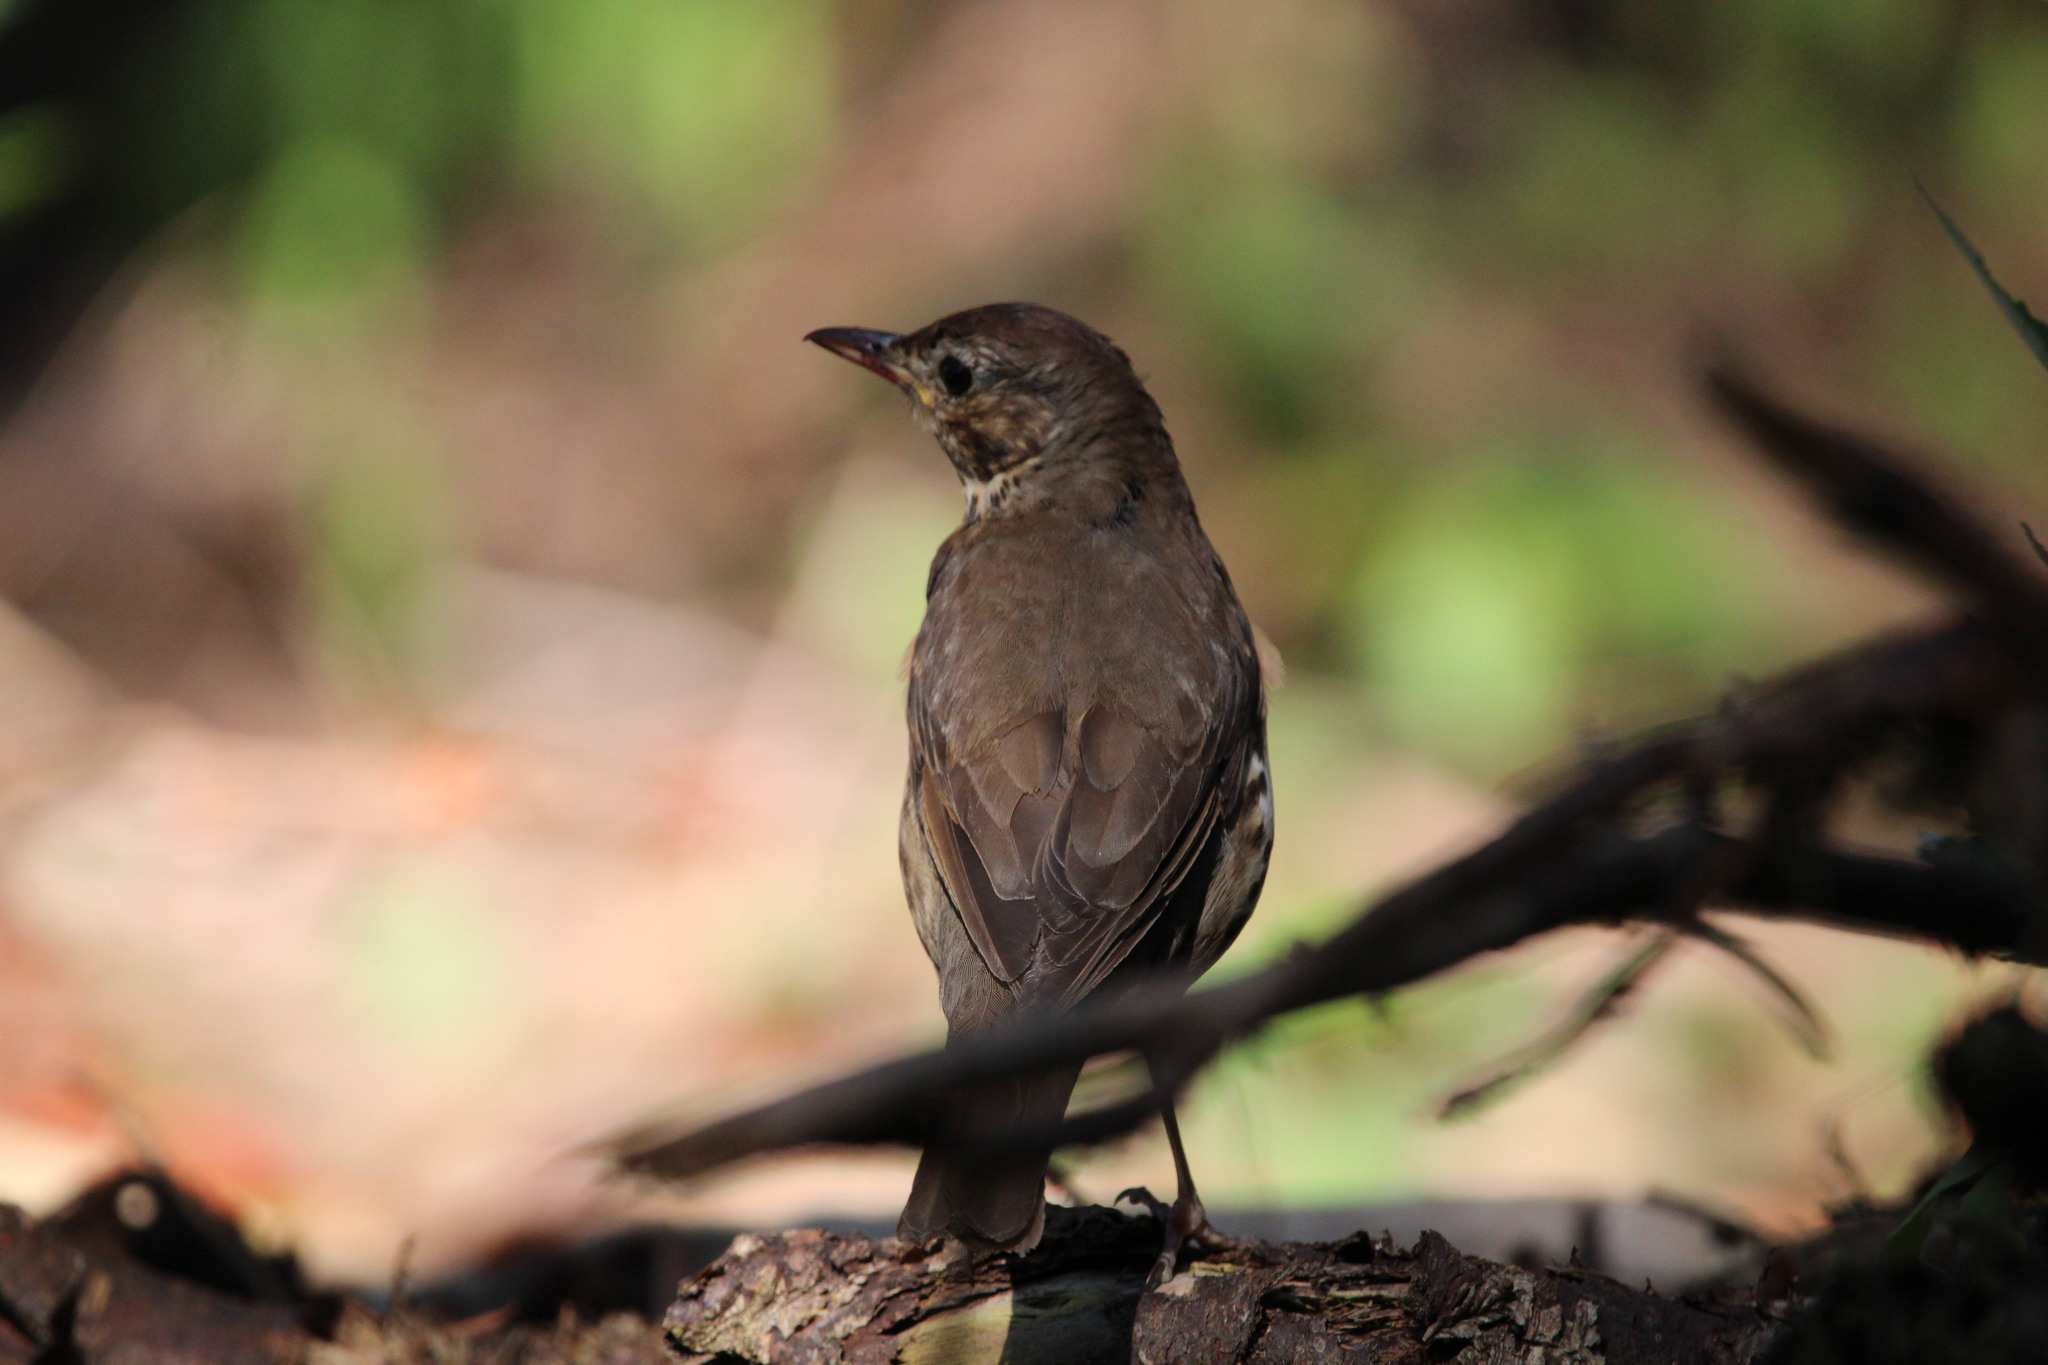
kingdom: Animalia
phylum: Chordata
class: Aves
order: Passeriformes
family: Turdidae
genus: Turdus
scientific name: Turdus philomelos
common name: Song thrush
